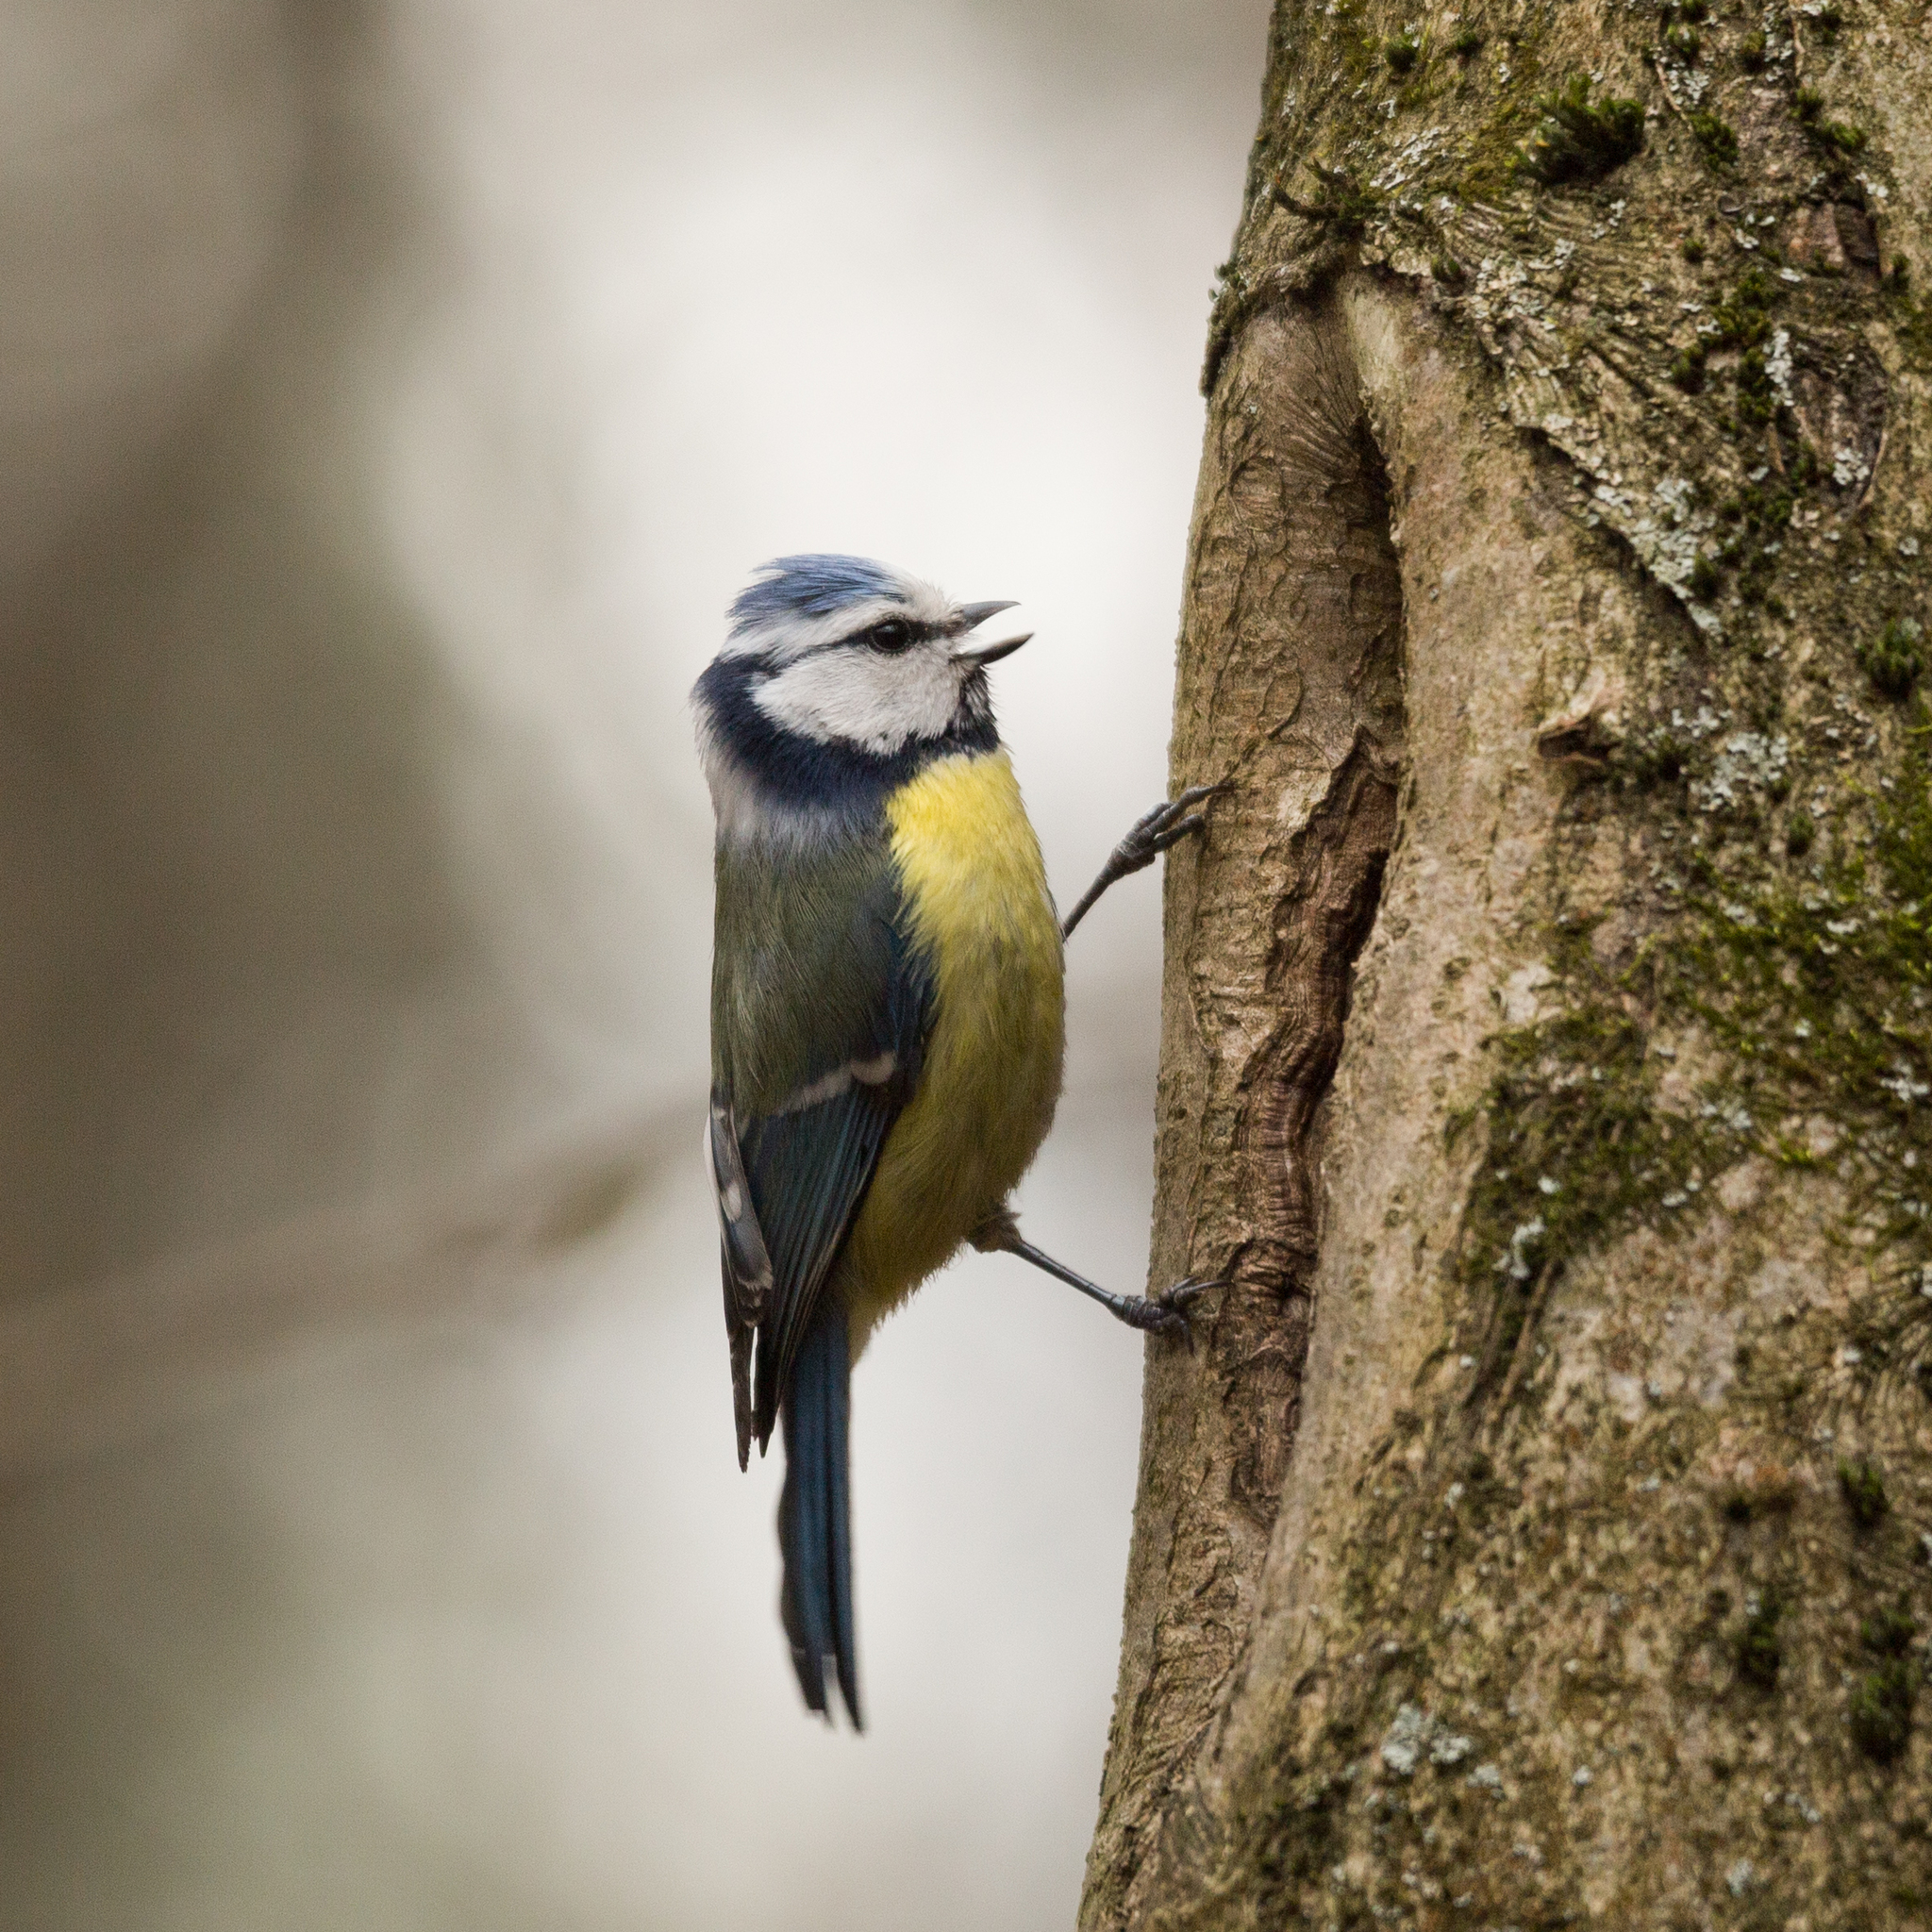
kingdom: Animalia
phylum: Chordata
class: Aves
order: Passeriformes
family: Paridae
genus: Cyanistes
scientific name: Cyanistes caeruleus
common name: Eurasian blue tit
